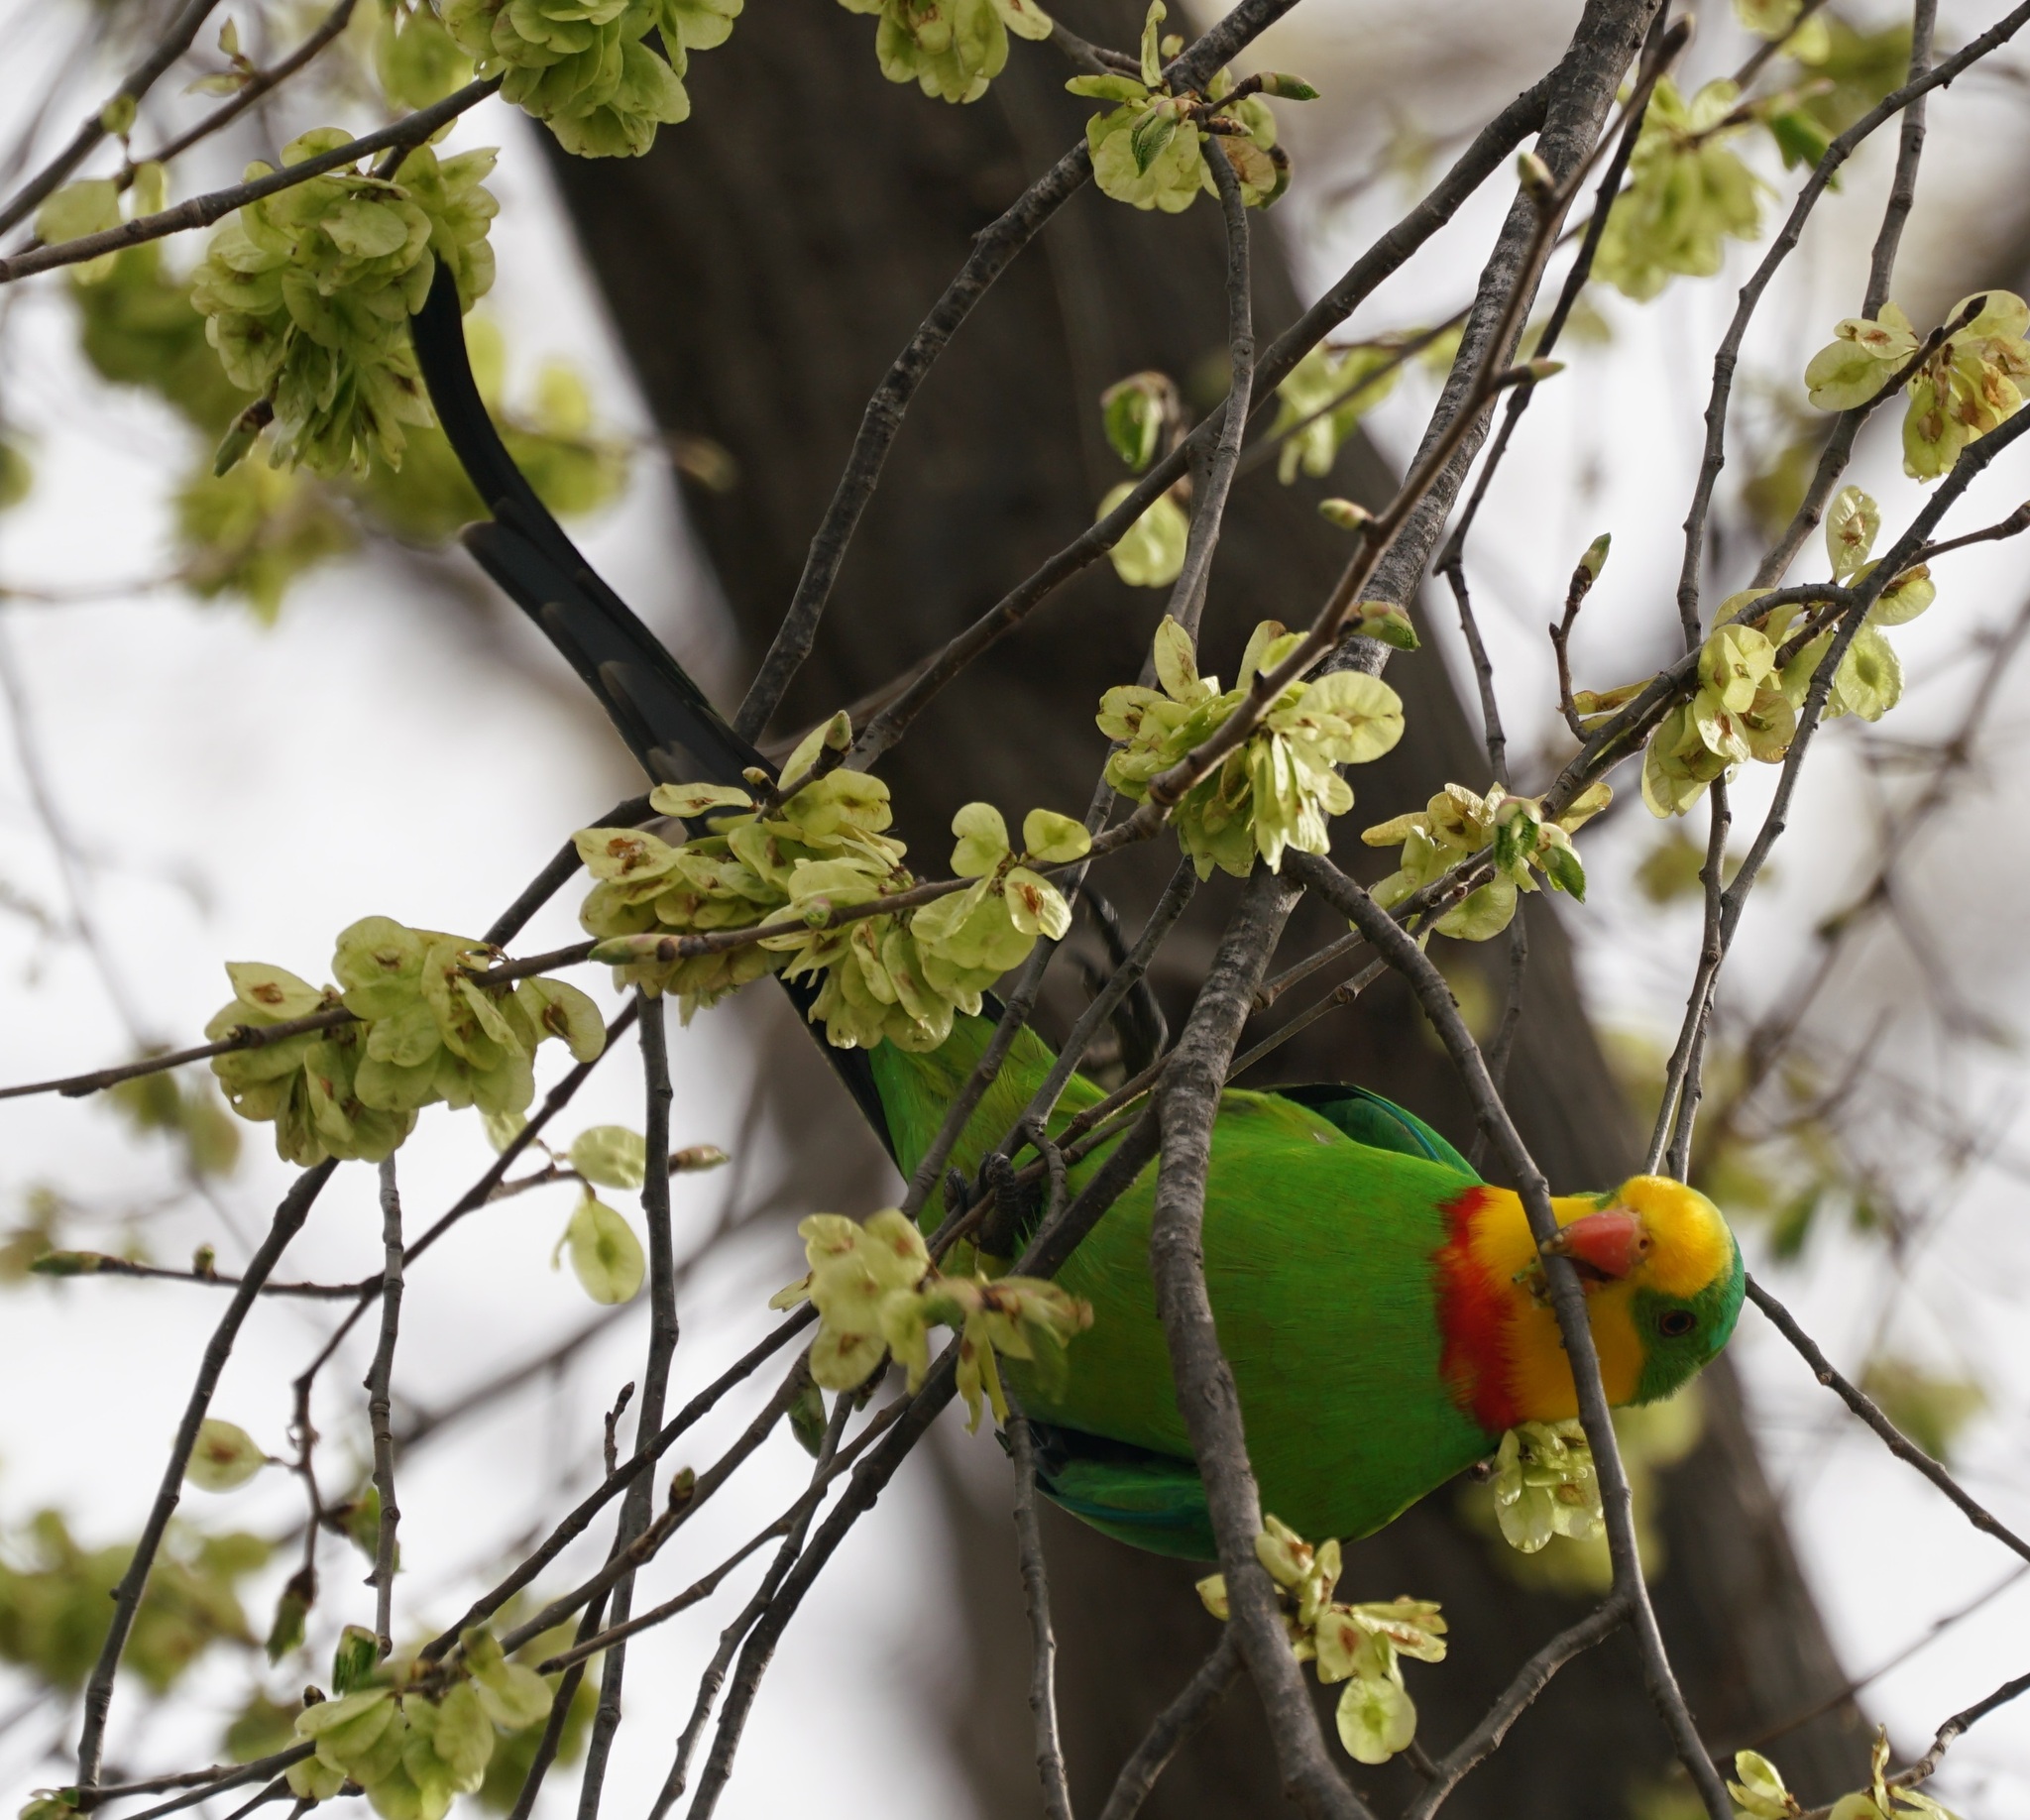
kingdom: Animalia
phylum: Chordata
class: Aves
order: Psittaciformes
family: Psittacidae
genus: Polytelis
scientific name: Polytelis swainsonii
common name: Superb parrot
